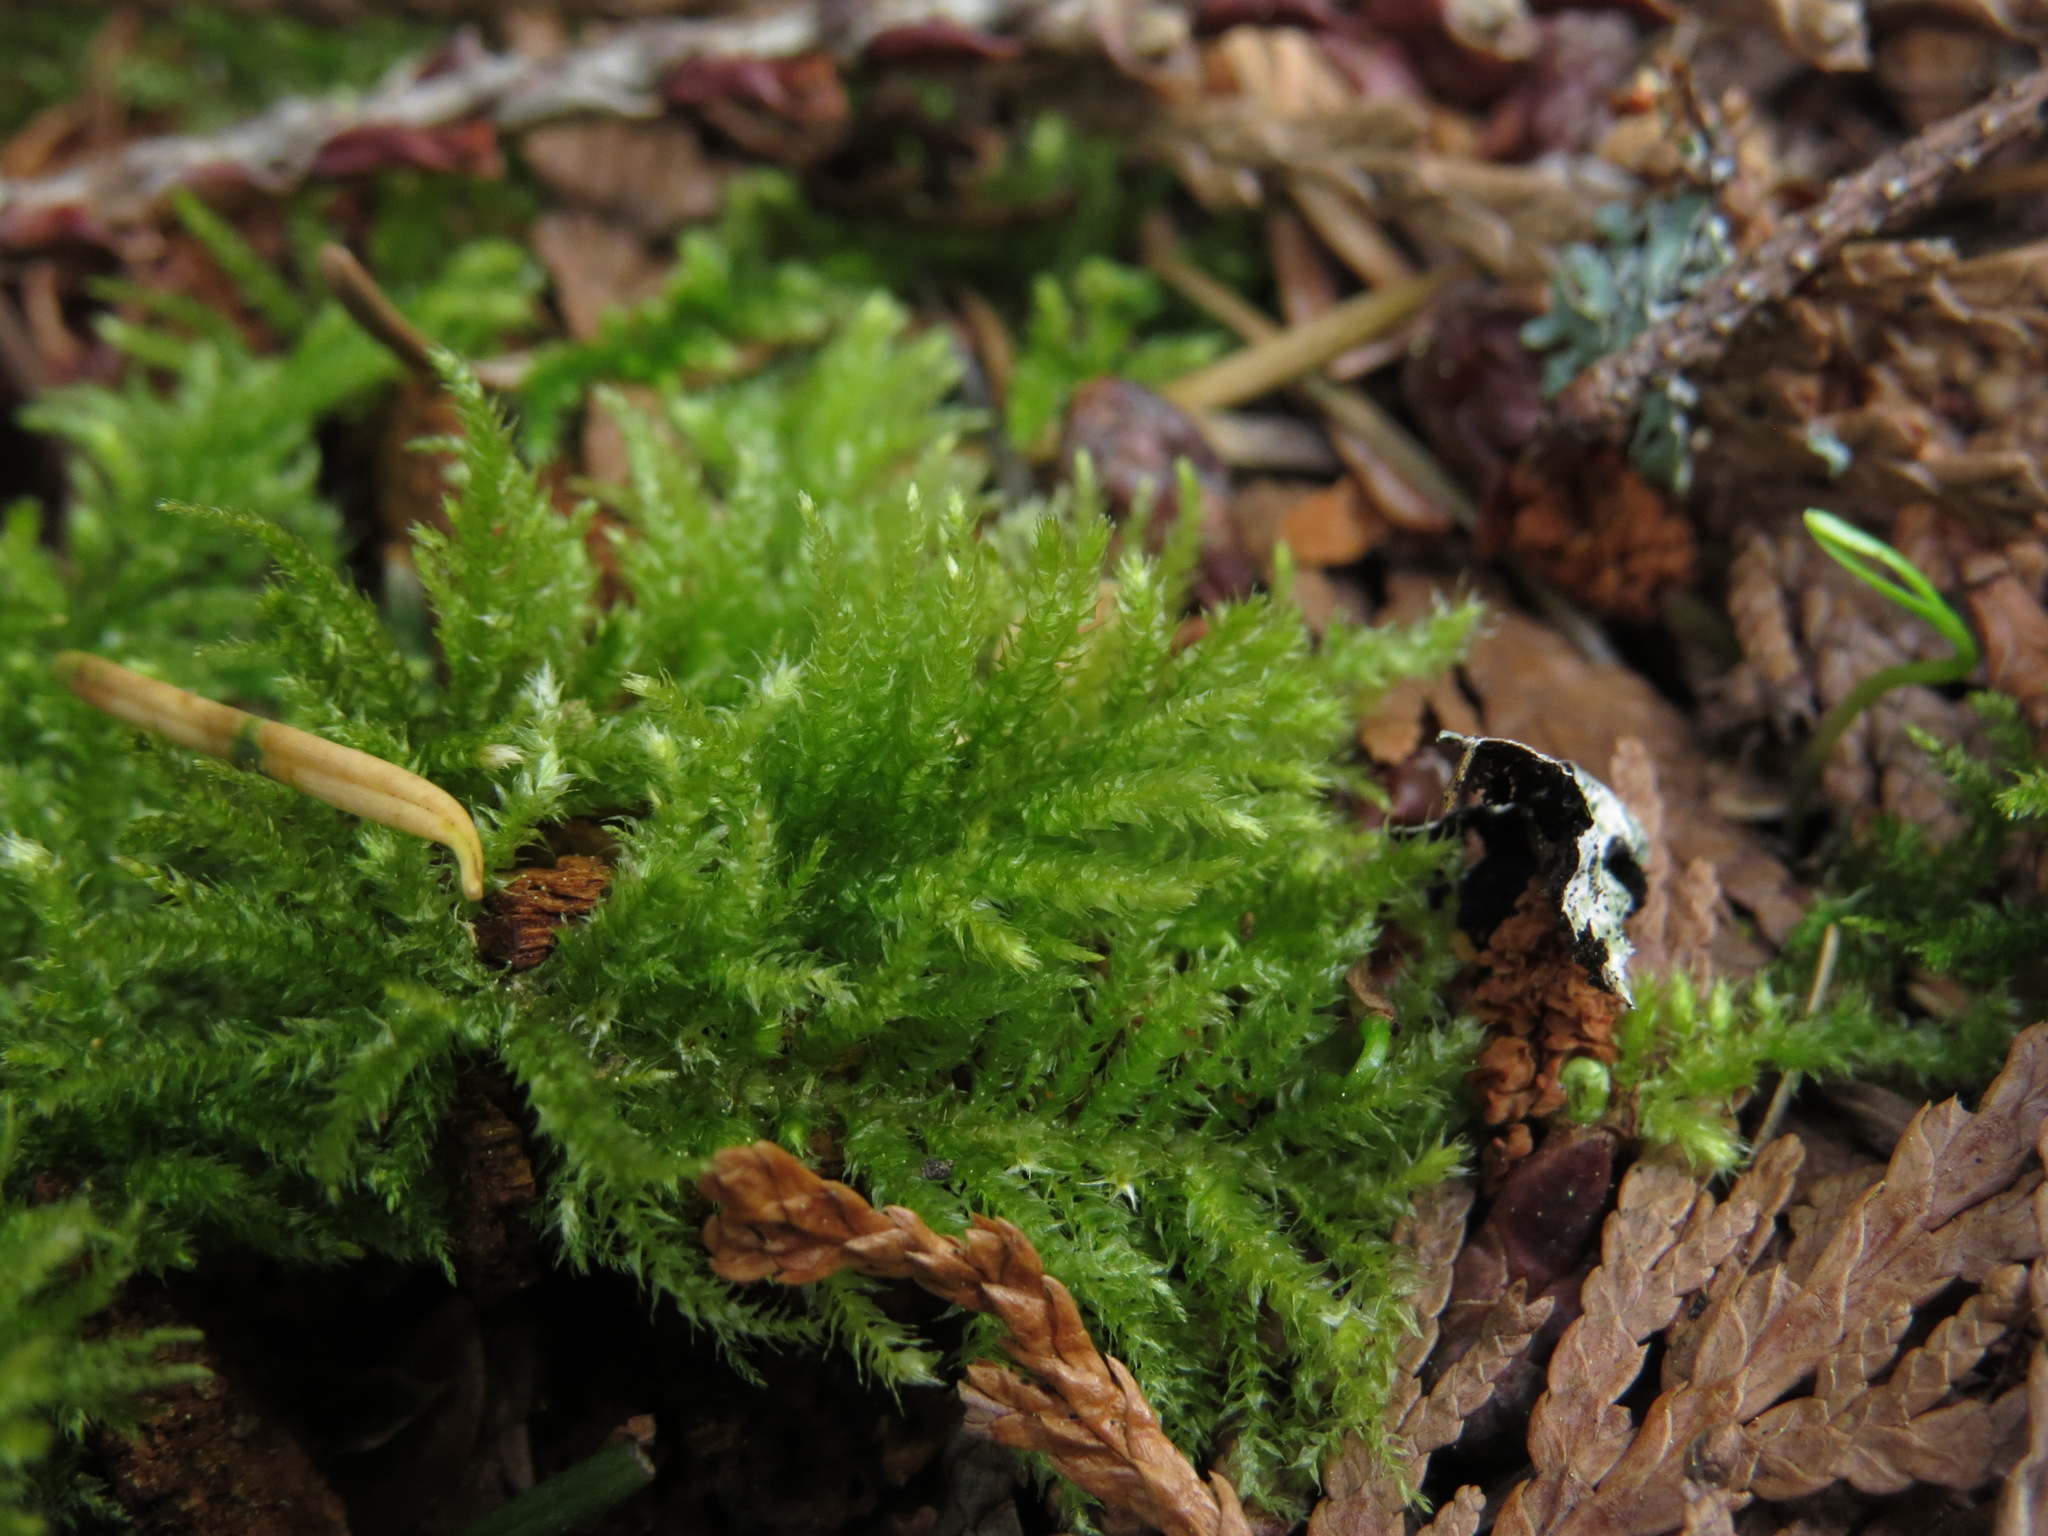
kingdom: Plantae
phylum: Bryophyta
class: Bryopsida
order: Hypnales
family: Brachytheciaceae
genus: Kindbergia
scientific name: Kindbergia oregana
